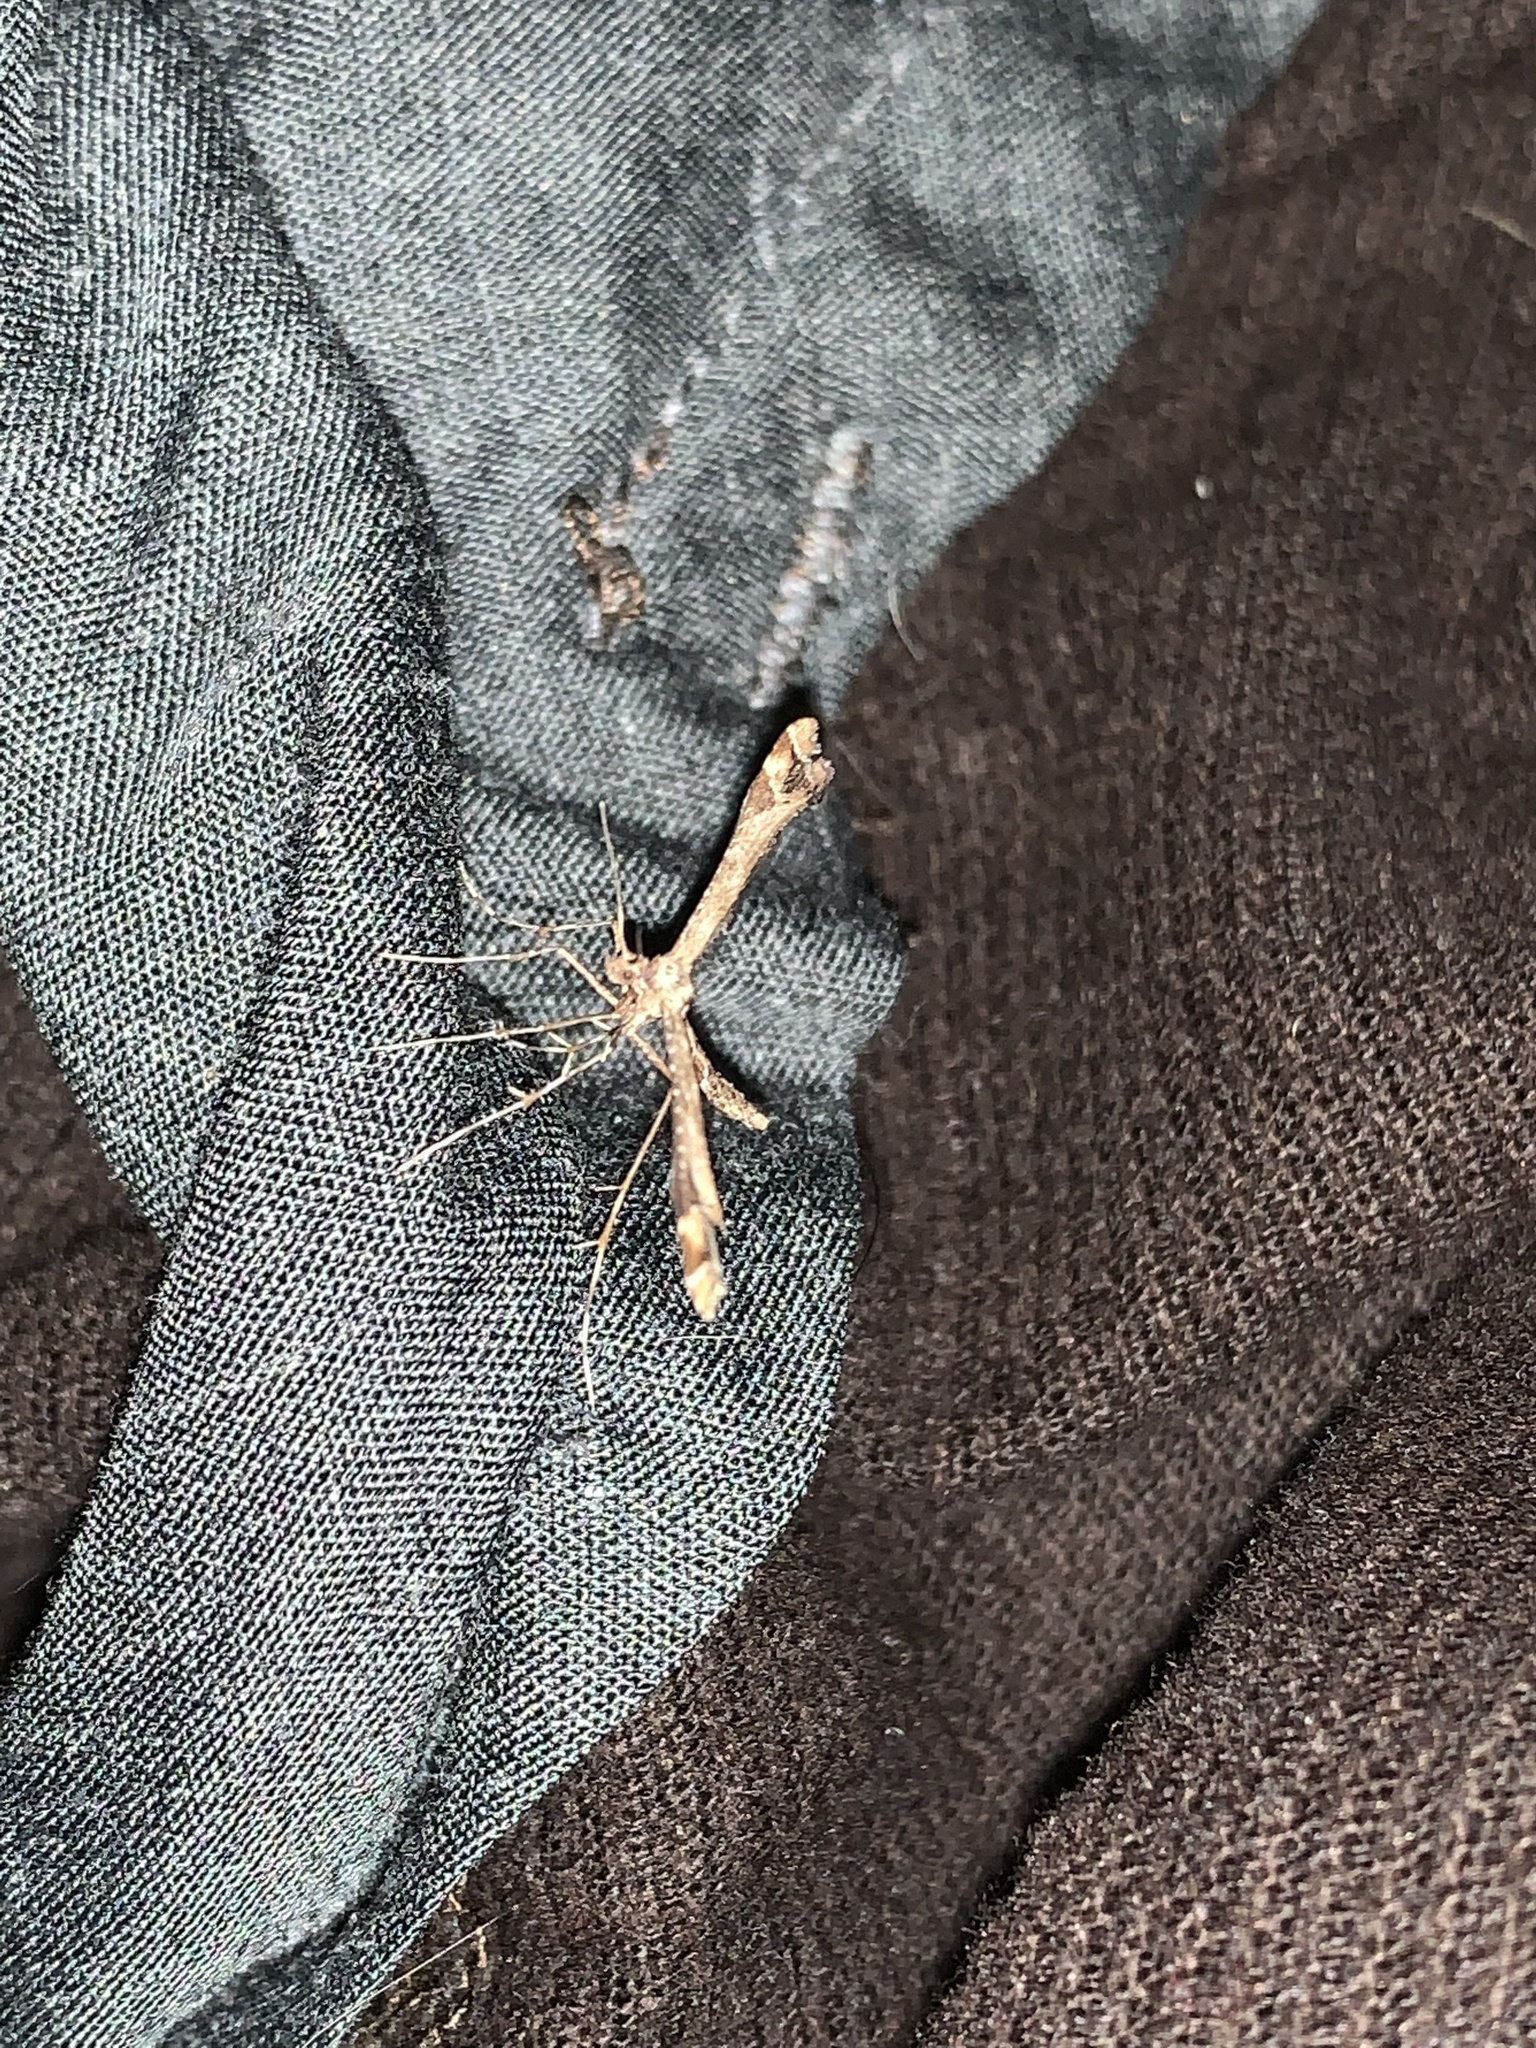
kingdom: Animalia
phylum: Arthropoda
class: Insecta
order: Lepidoptera
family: Pterophoridae
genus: Amblyptilia
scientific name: Amblyptilia acanthadactyla
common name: Beautiful plume
